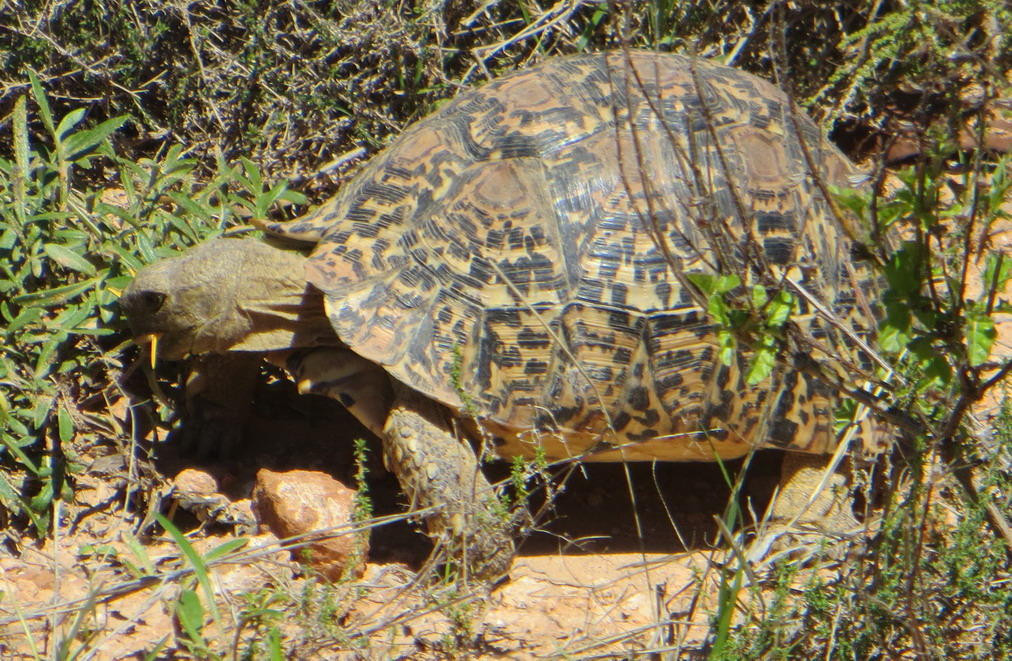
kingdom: Animalia
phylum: Chordata
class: Testudines
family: Testudinidae
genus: Stigmochelys
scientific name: Stigmochelys pardalis
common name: Leopard tortoise
